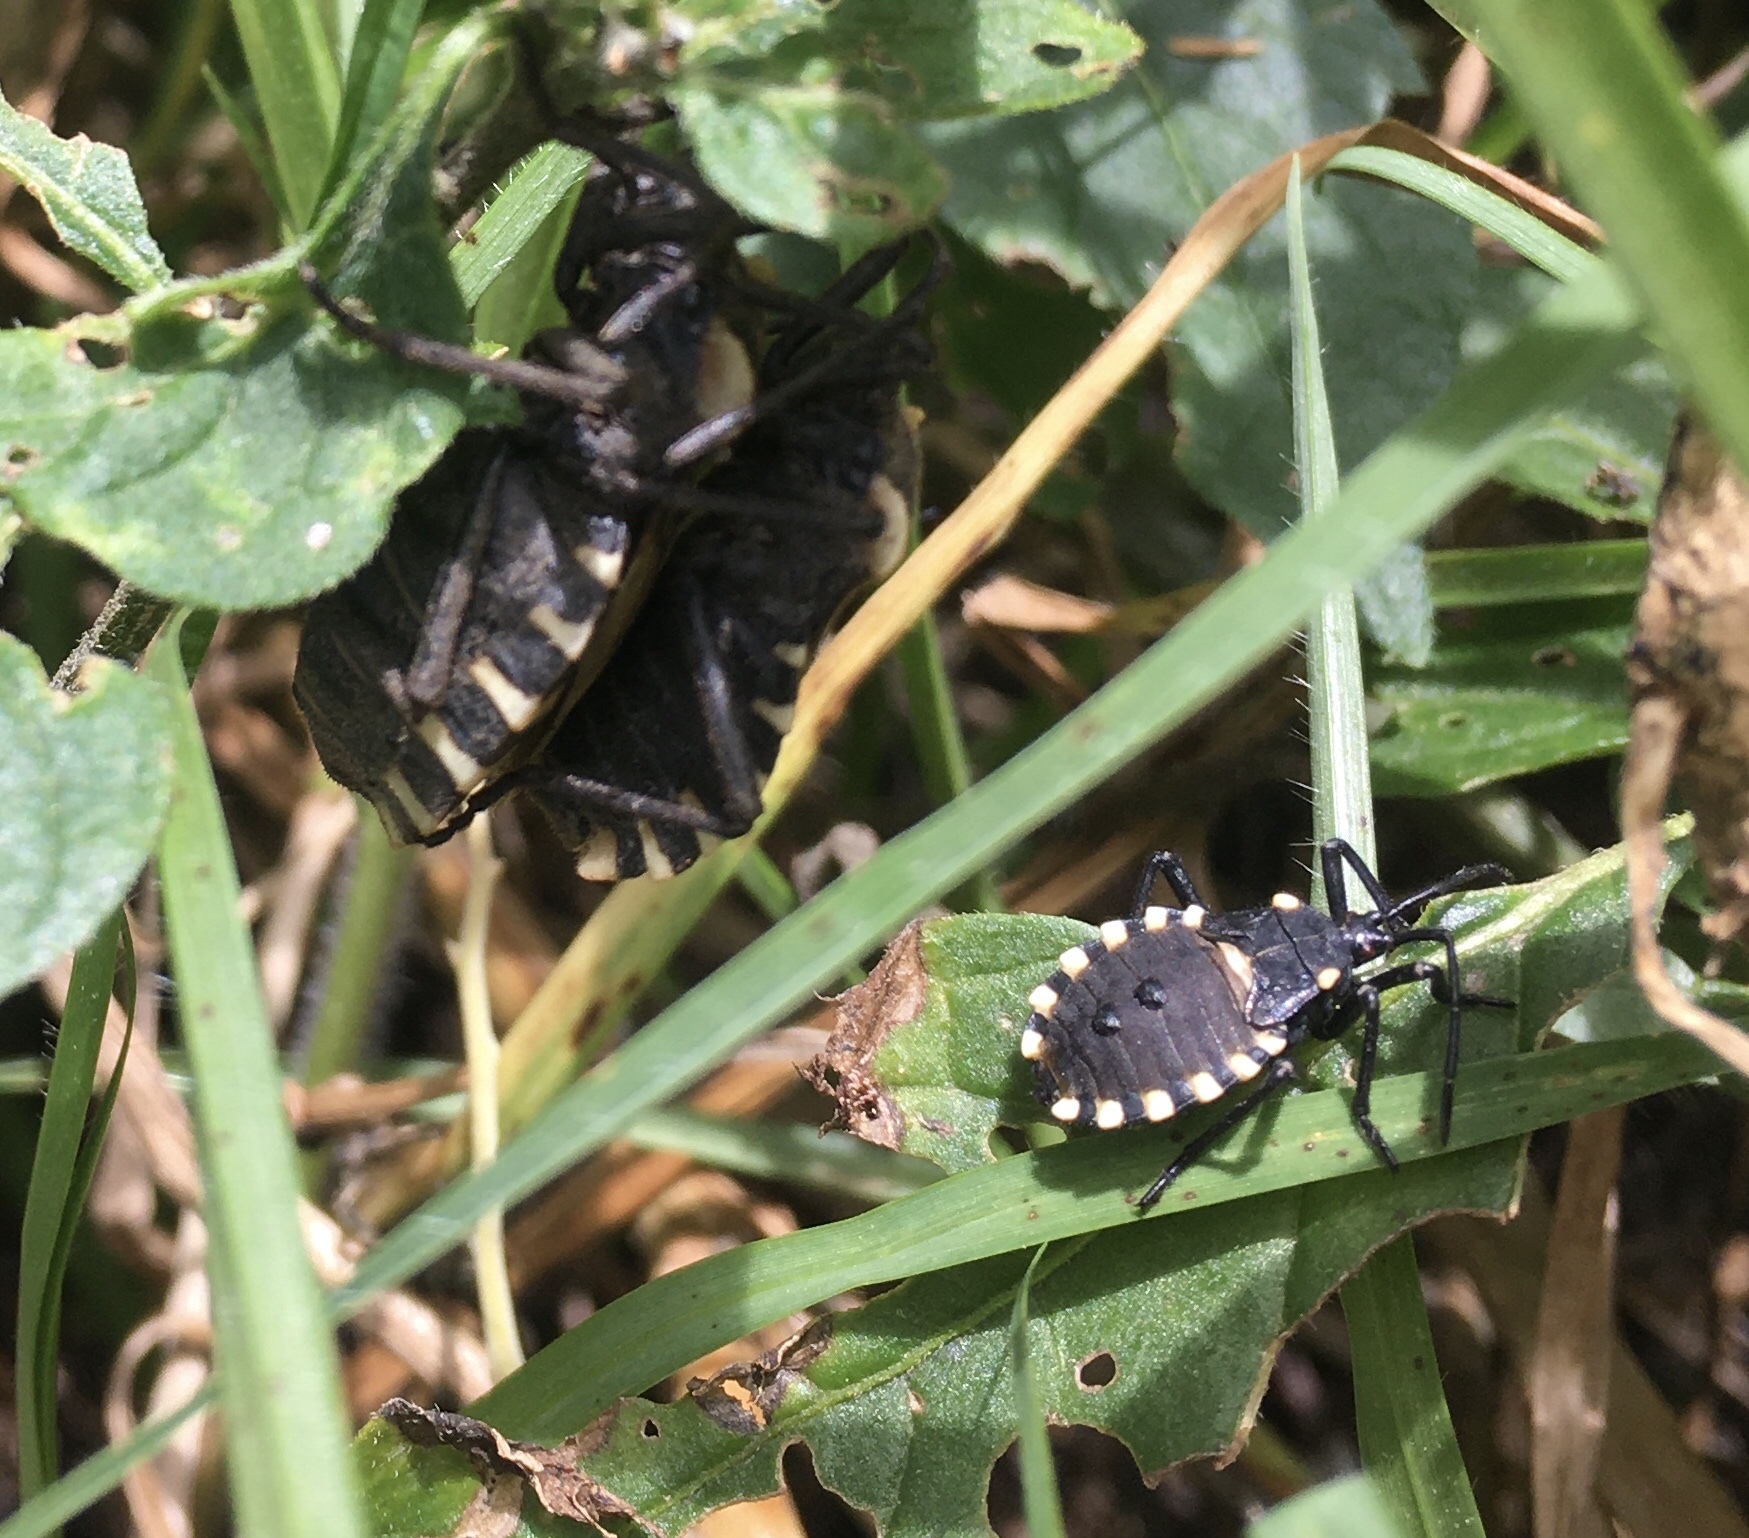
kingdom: Animalia
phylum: Arthropoda
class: Insecta
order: Hemiptera
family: Coreidae
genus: Spartocera
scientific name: Spartocera alternata
